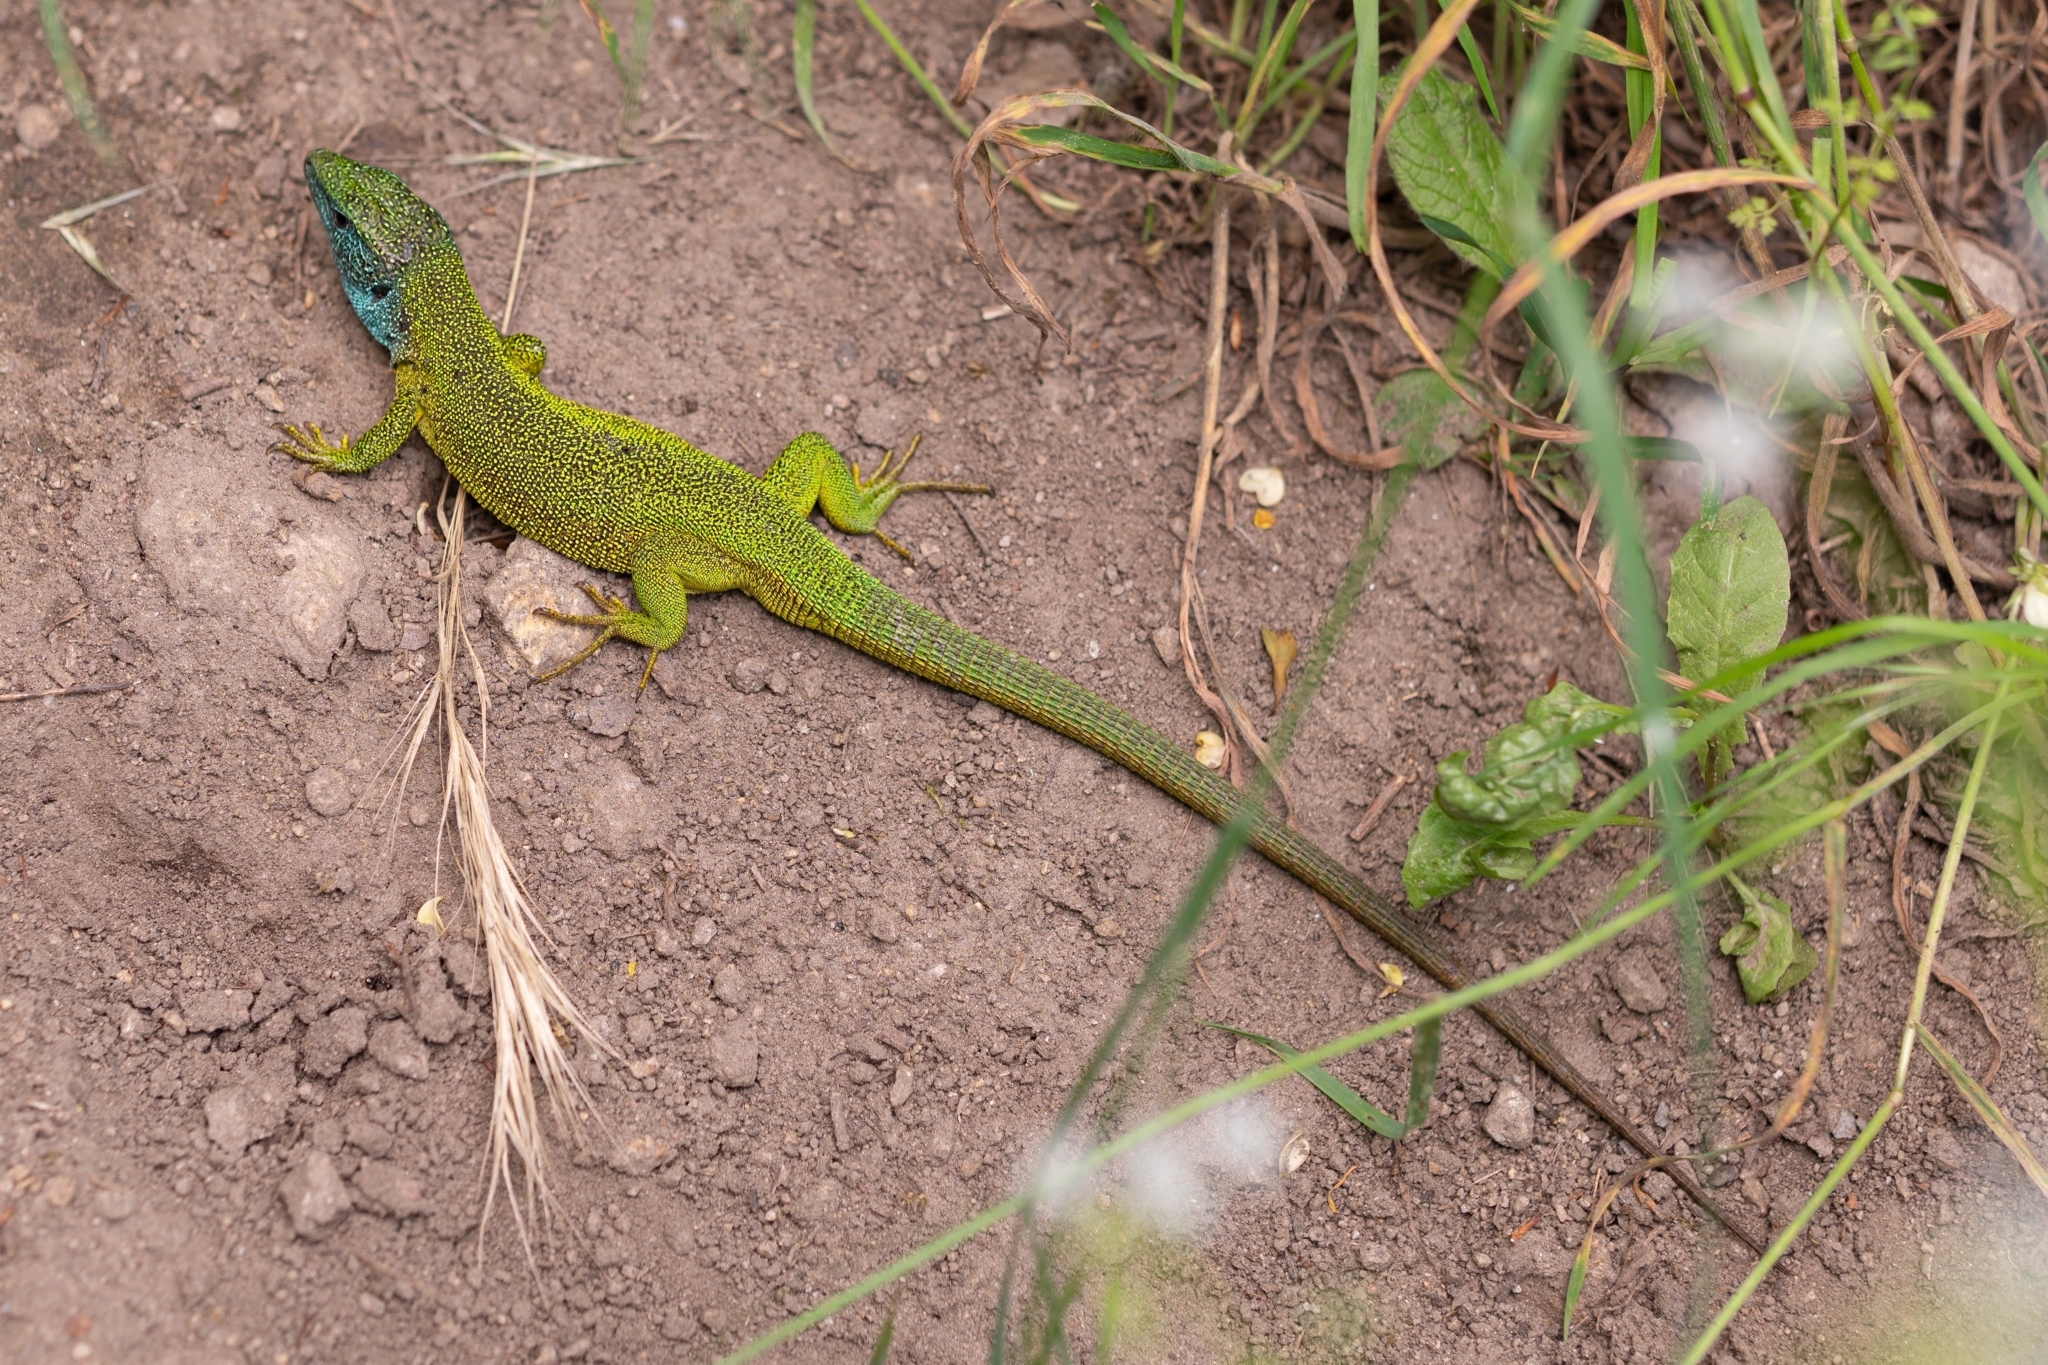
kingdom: Animalia
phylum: Chordata
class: Squamata
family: Lacertidae
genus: Lacerta
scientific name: Lacerta viridis
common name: European green lizard
